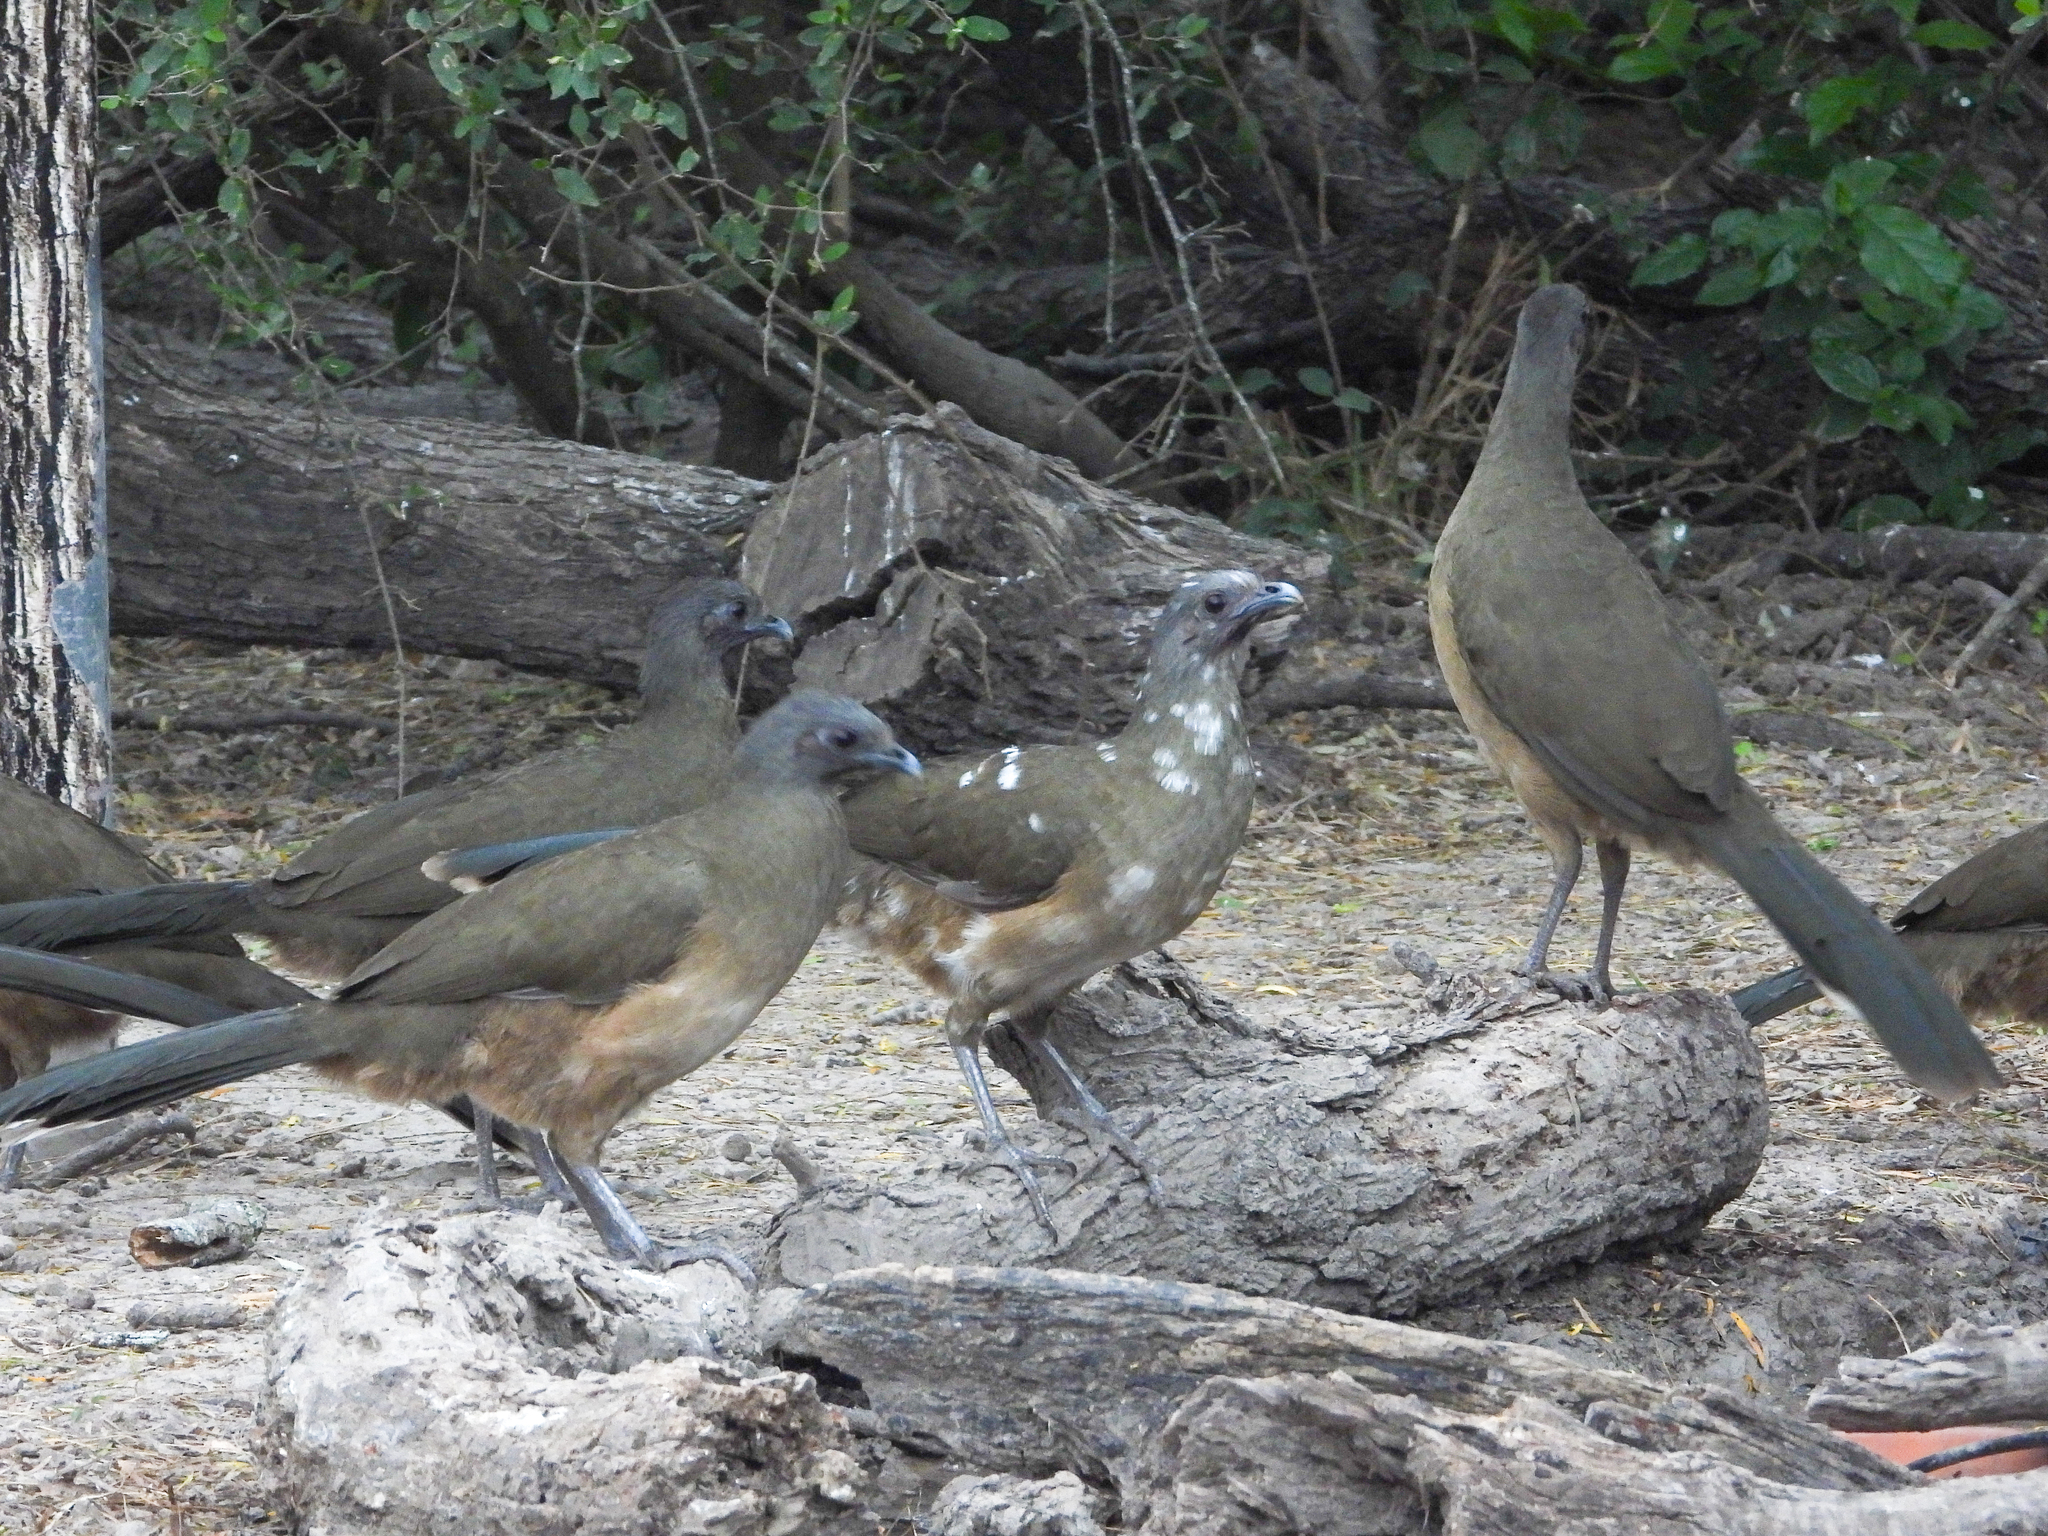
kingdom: Animalia
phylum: Chordata
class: Aves
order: Galliformes
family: Cracidae
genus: Ortalis
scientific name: Ortalis vetula
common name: Plain chachalaca
